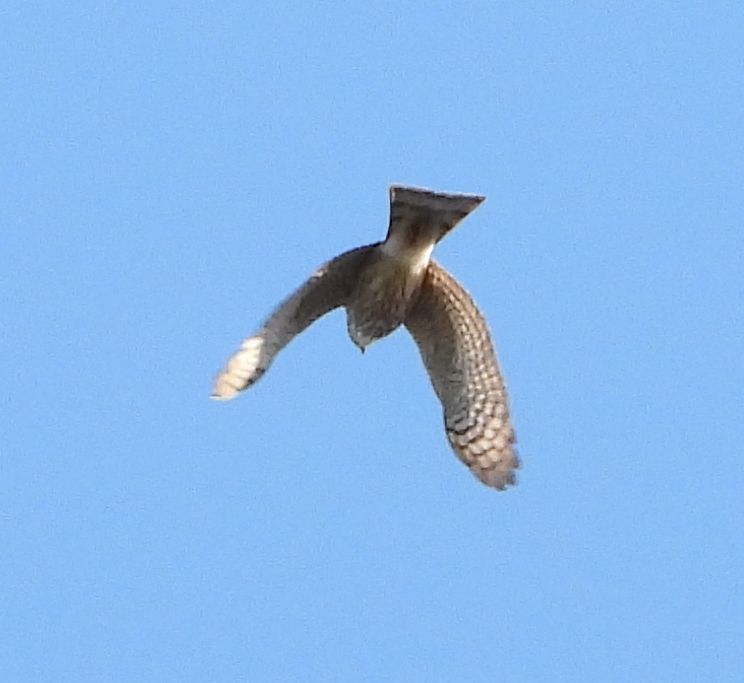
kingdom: Animalia
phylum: Chordata
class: Aves
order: Accipitriformes
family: Accipitridae
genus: Accipiter
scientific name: Accipiter striatus
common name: Sharp-shinned hawk
